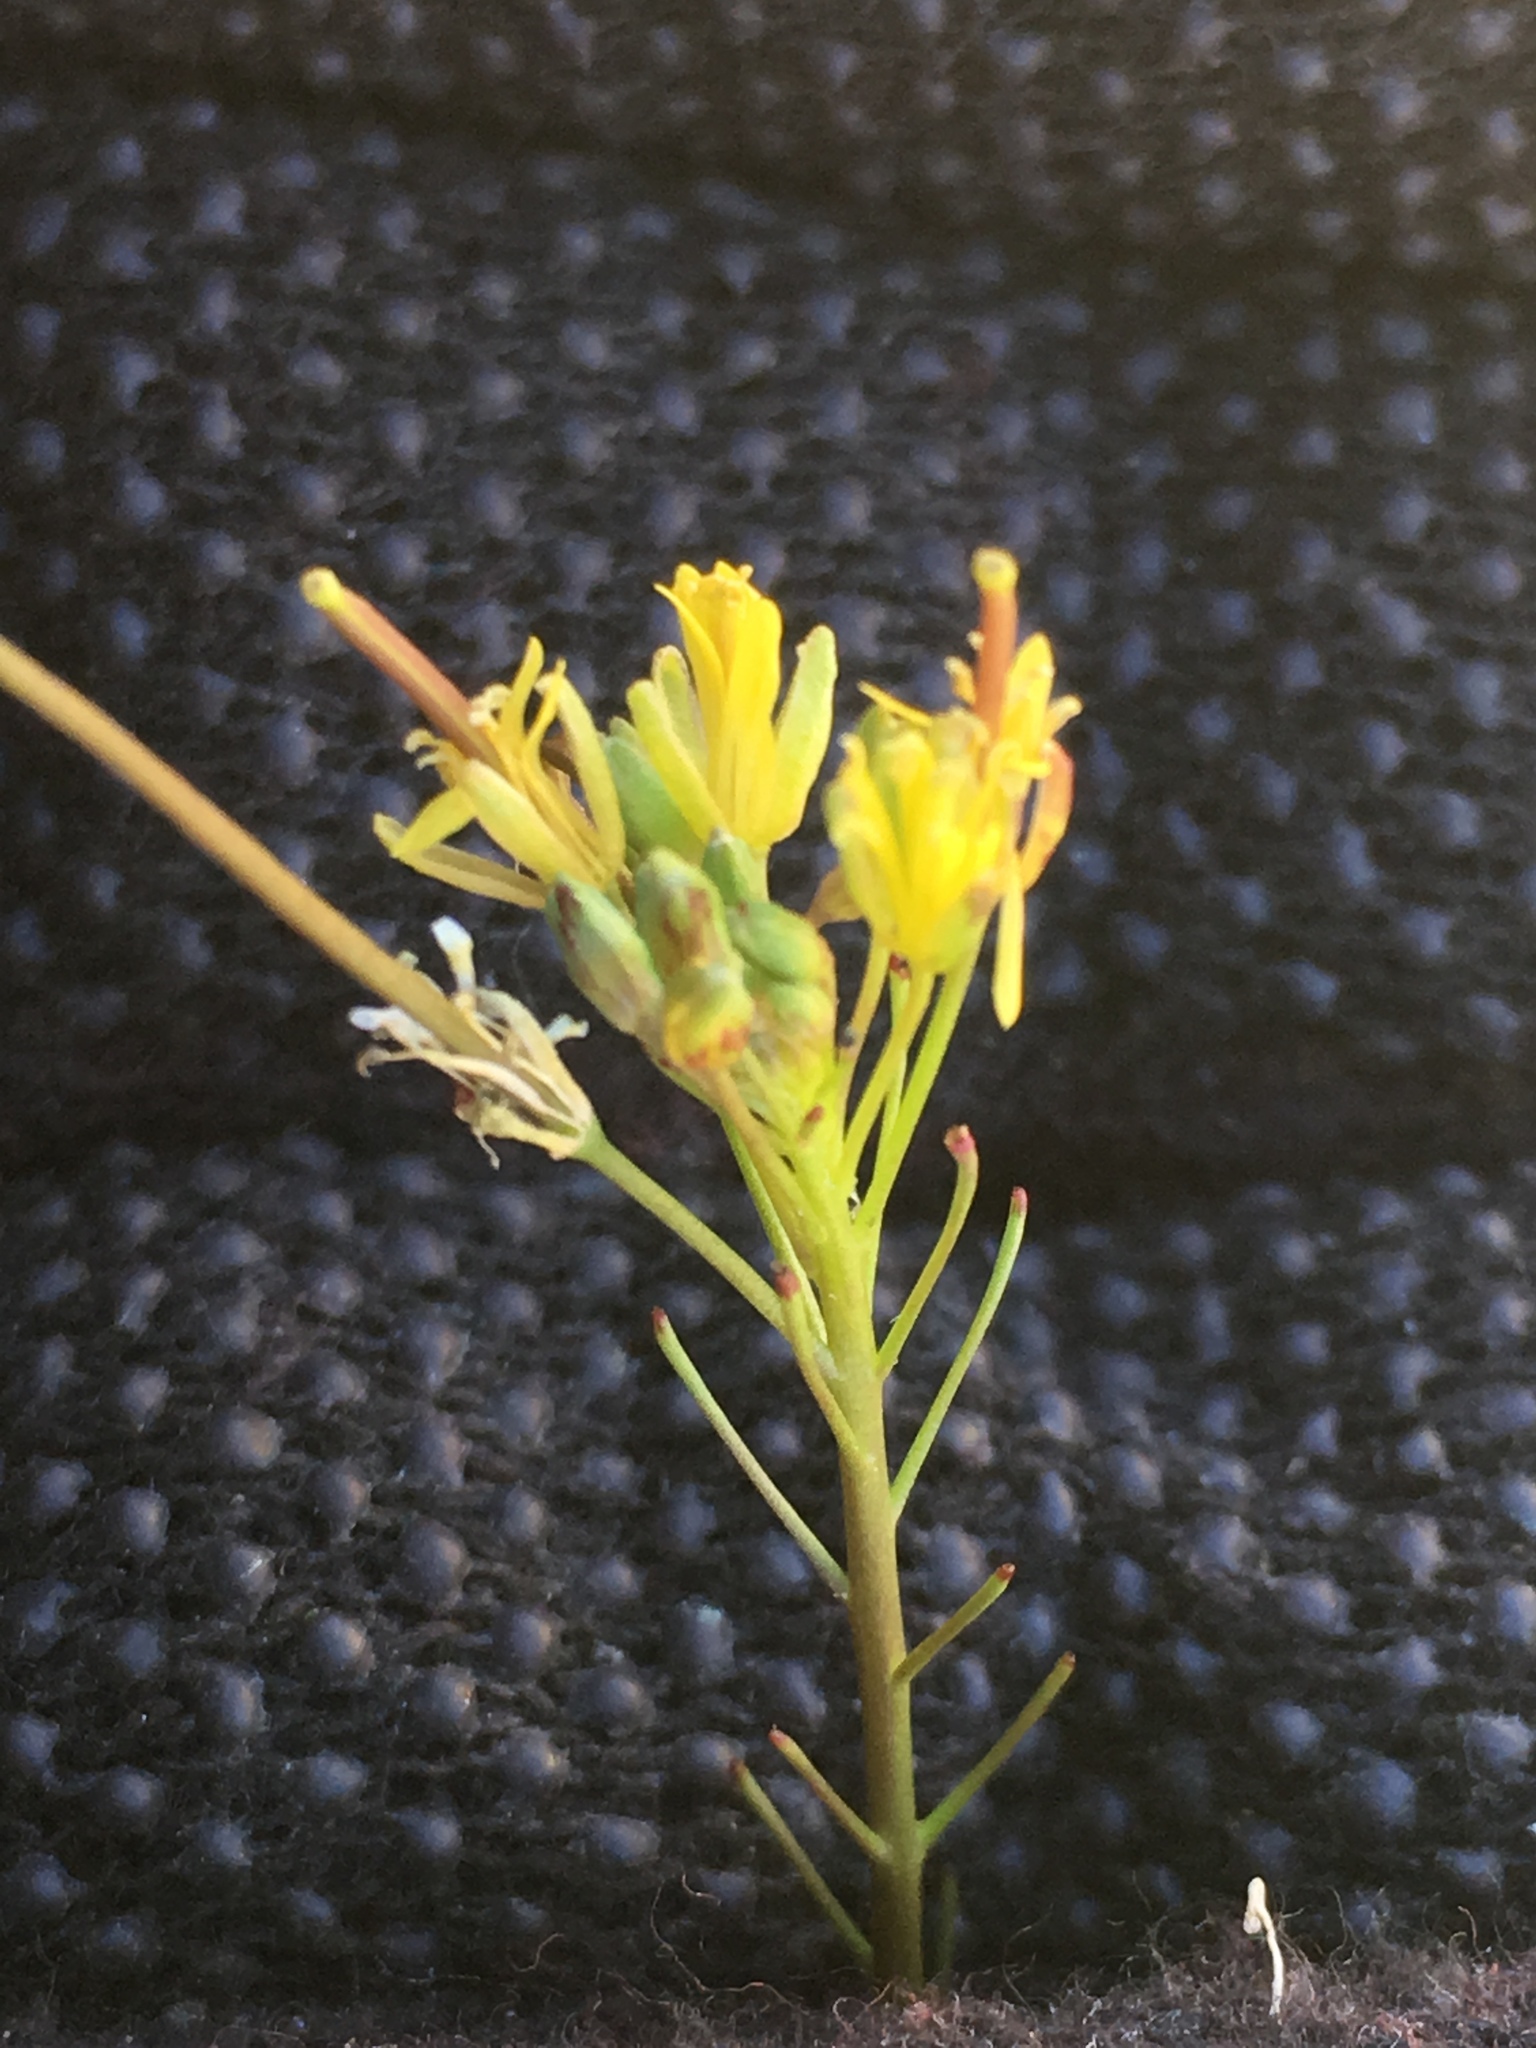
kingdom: Plantae
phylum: Tracheophyta
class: Magnoliopsida
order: Brassicales
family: Brassicaceae
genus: Sisymbrium
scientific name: Sisymbrium irio
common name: London rocket
